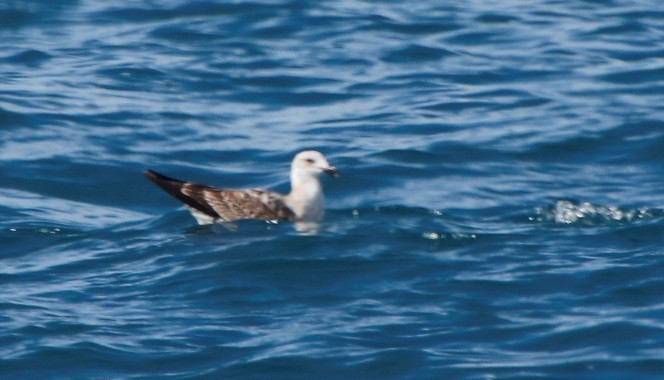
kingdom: Animalia
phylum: Chordata
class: Aves
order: Charadriiformes
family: Laridae
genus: Larus
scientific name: Larus dominicanus
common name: Kelp gull
